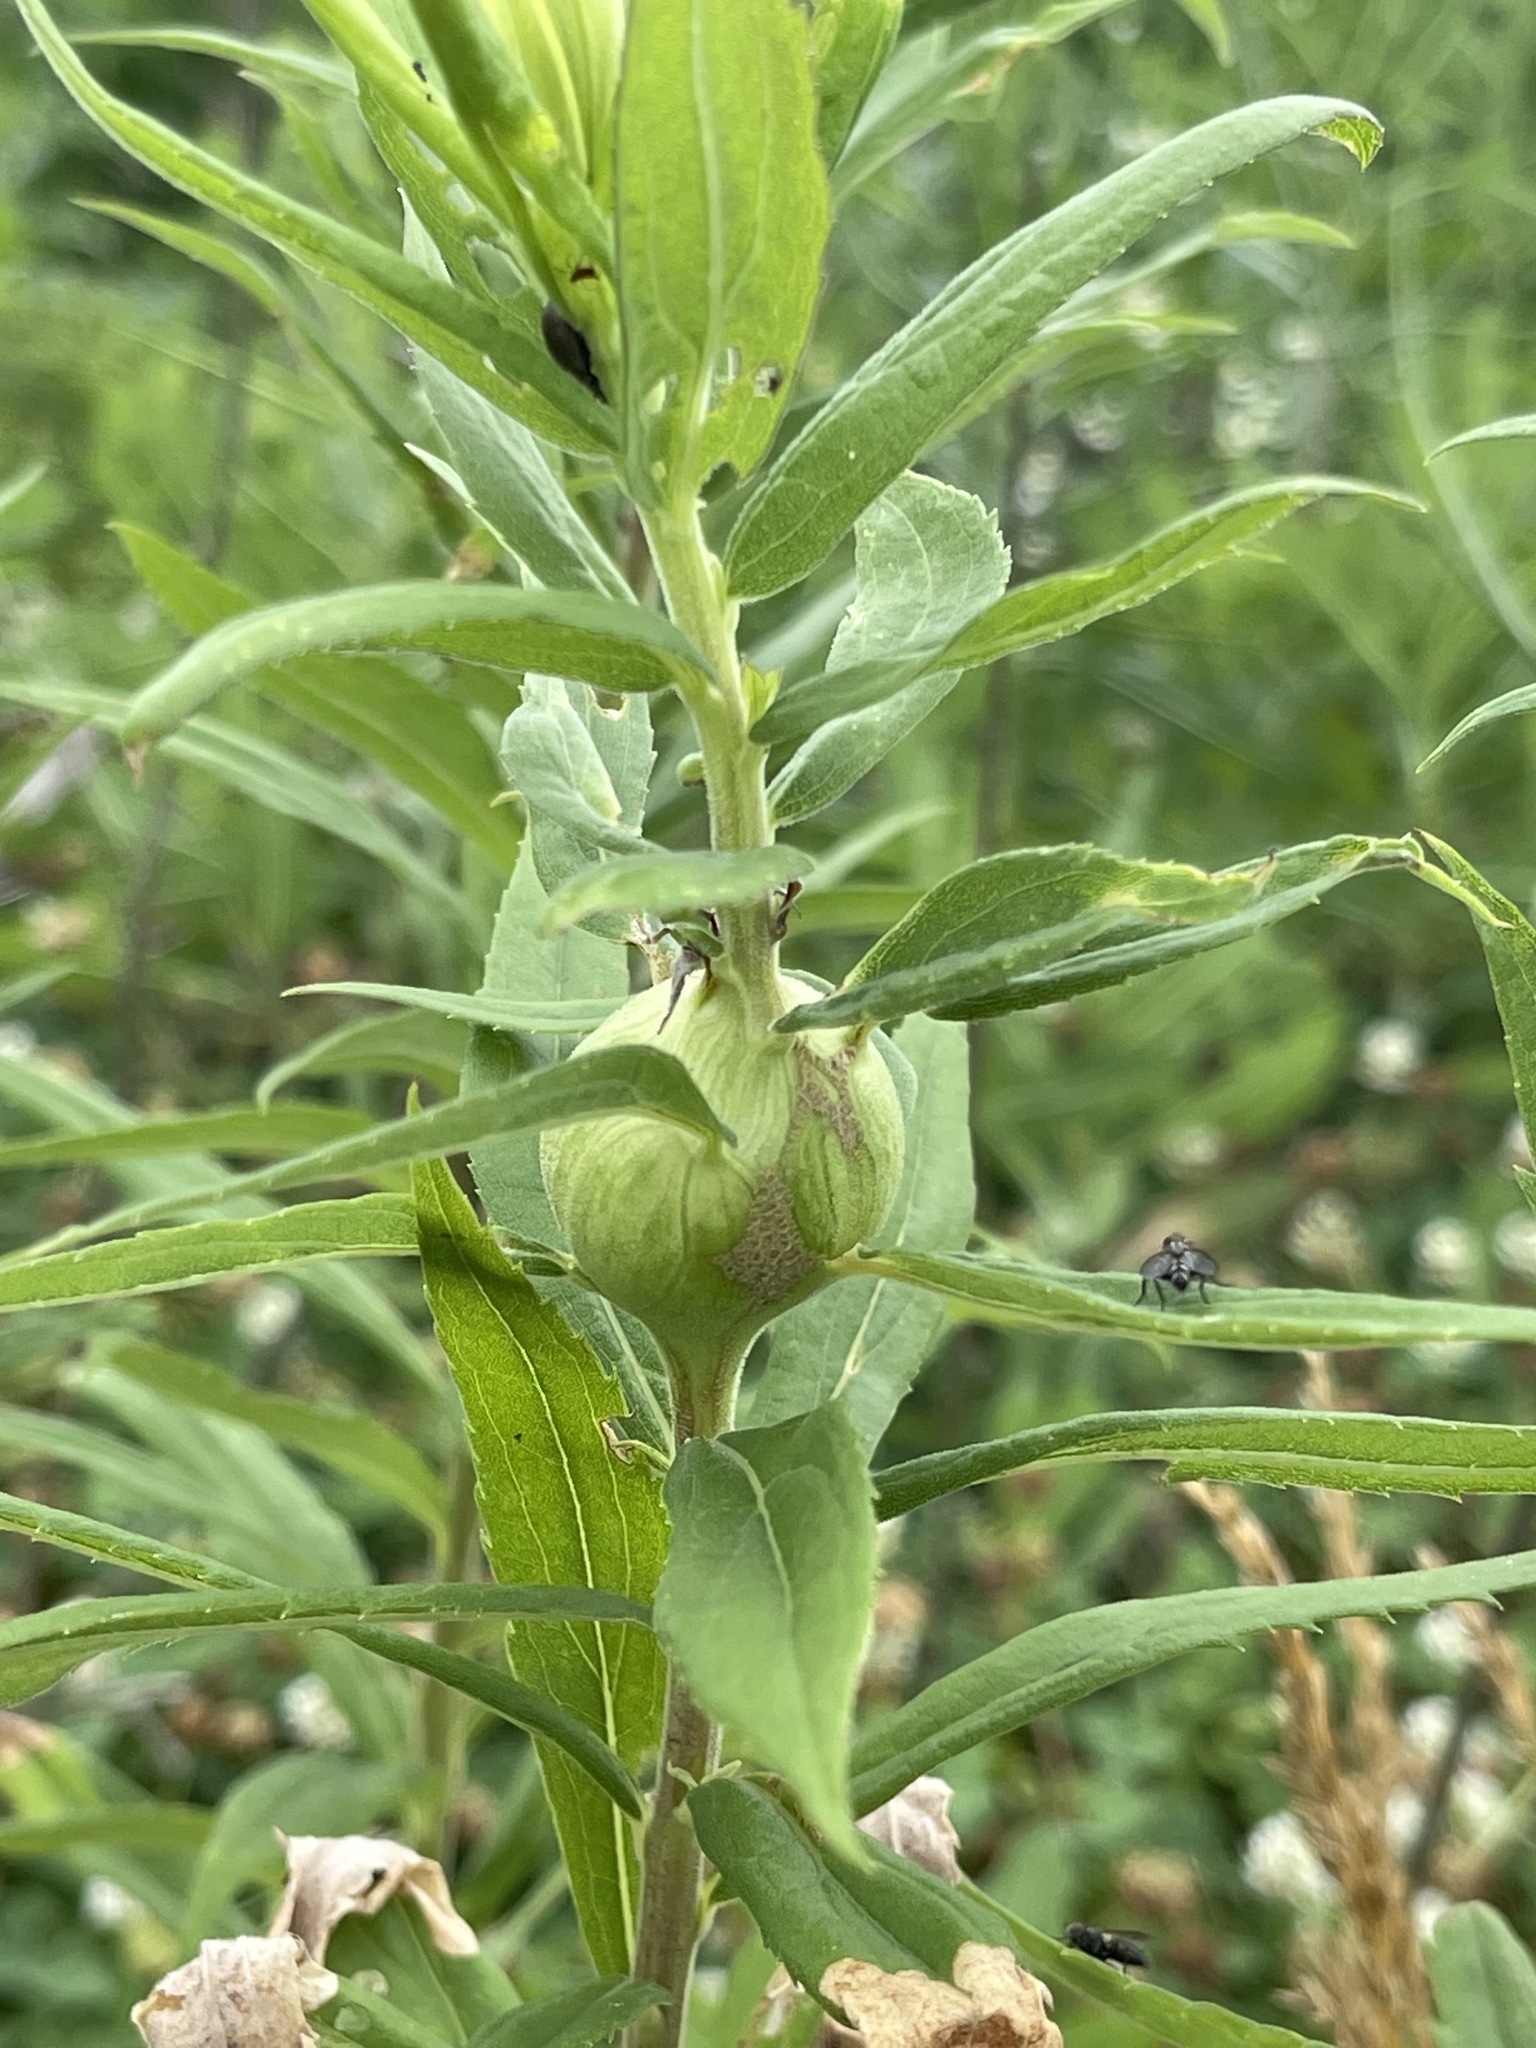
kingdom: Animalia
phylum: Arthropoda
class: Insecta
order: Diptera
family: Tephritidae
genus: Eurosta
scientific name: Eurosta solidaginis
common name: Goldenrod gall fly
